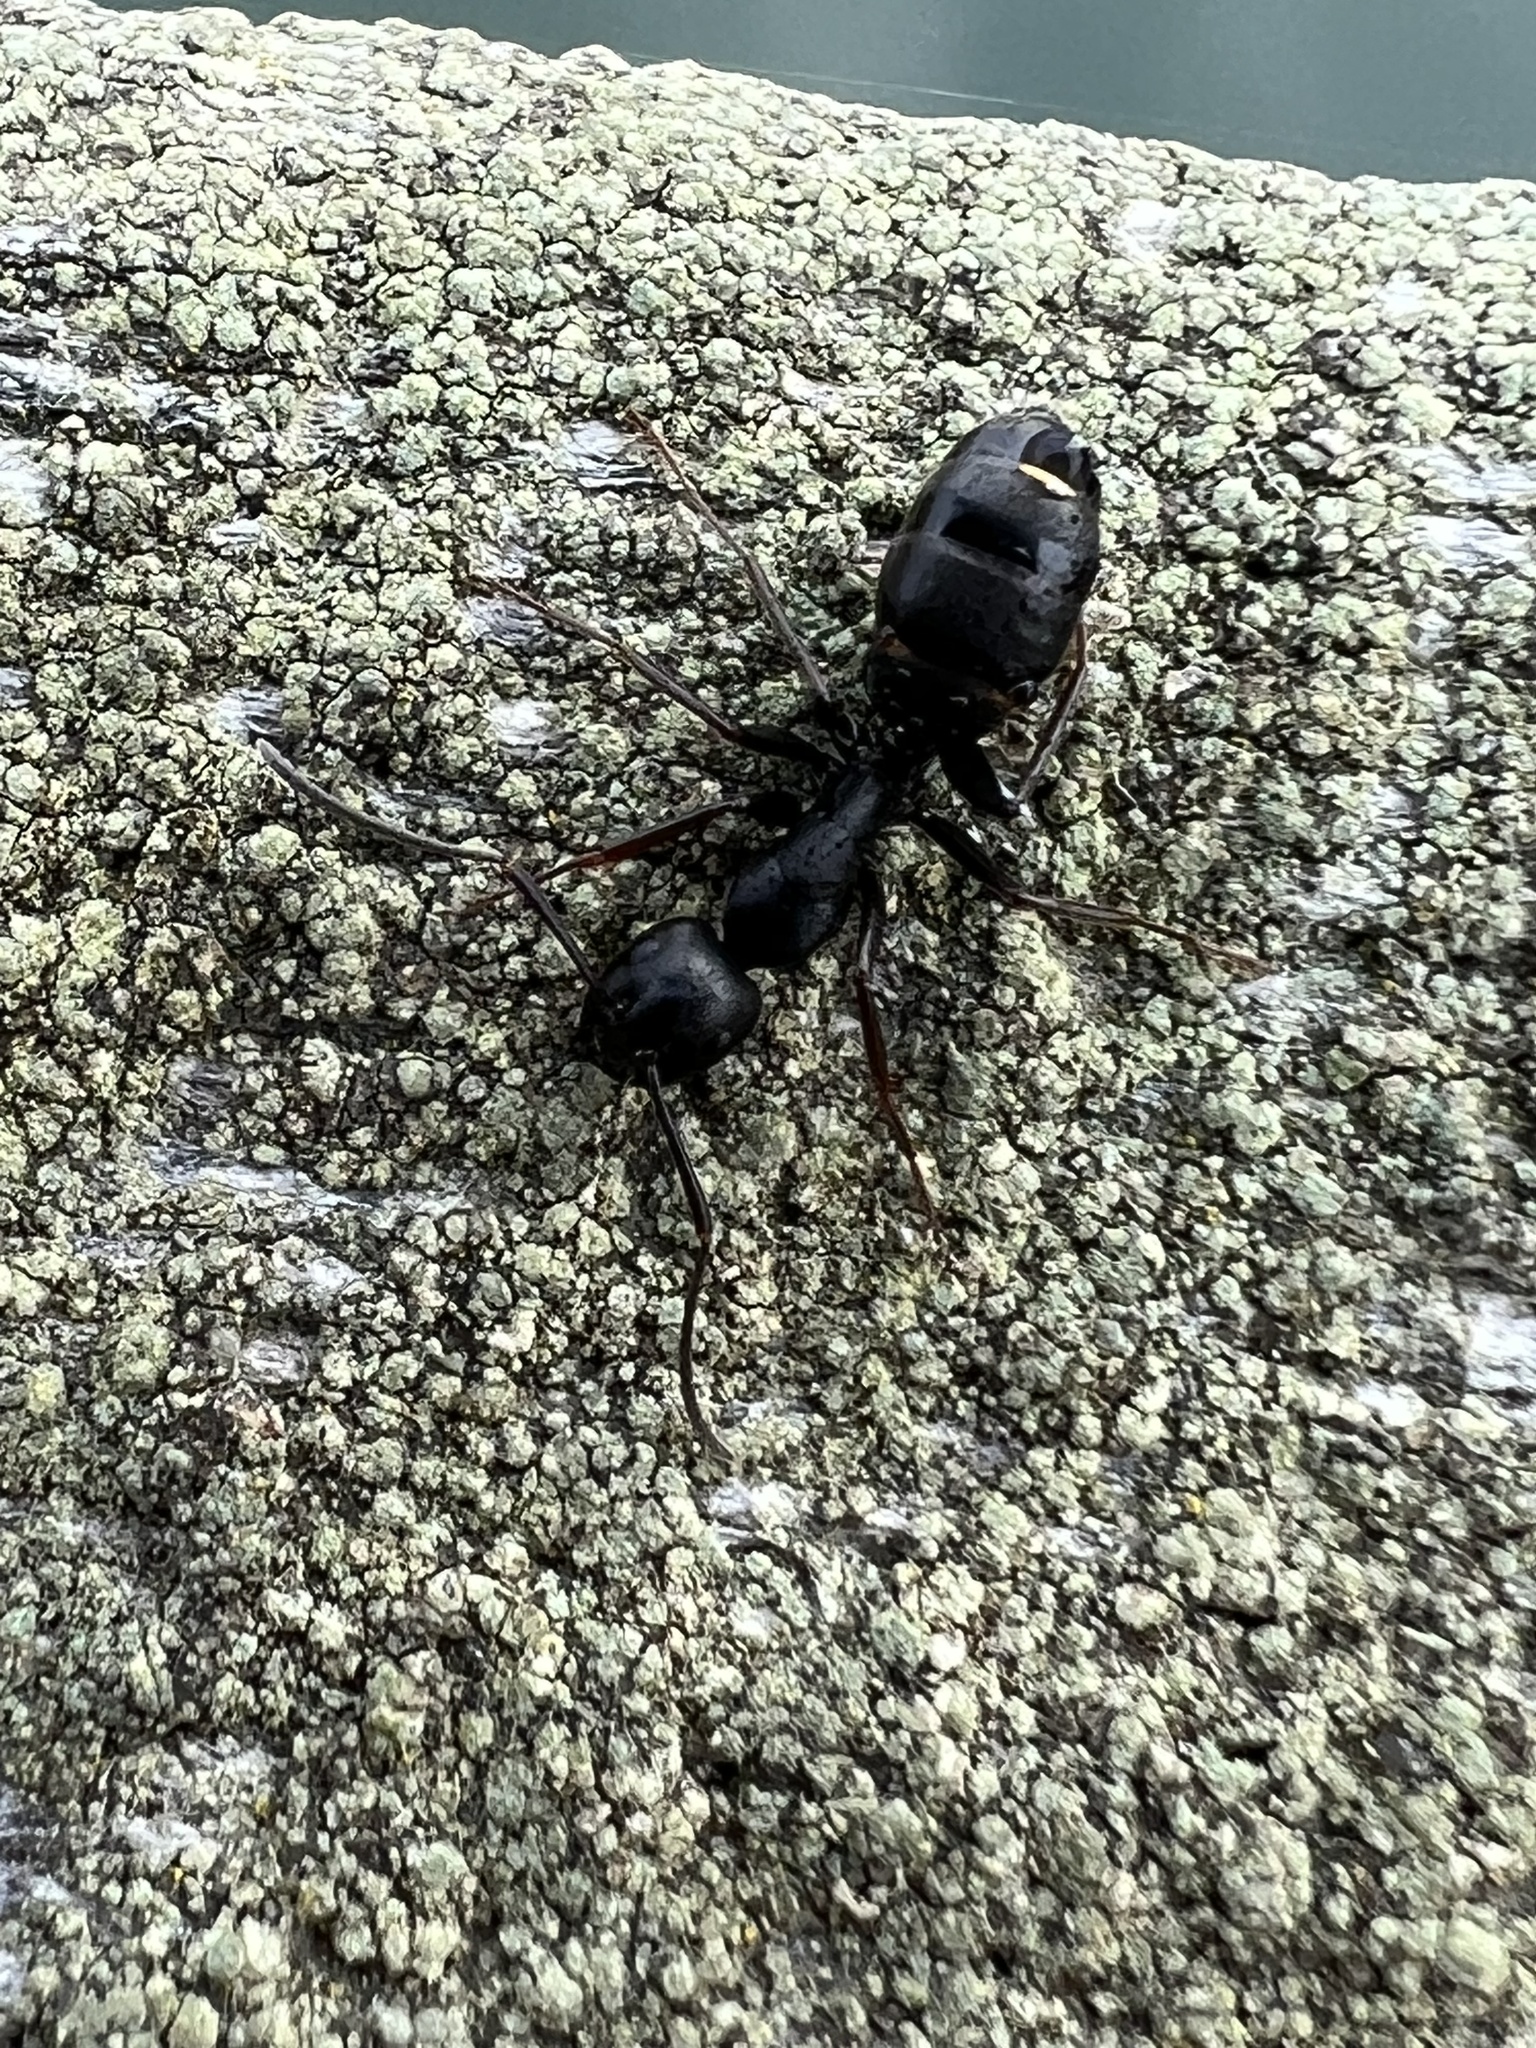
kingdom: Animalia
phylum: Arthropoda
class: Insecta
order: Hymenoptera
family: Formicidae
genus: Camponotus
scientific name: Camponotus modoc
